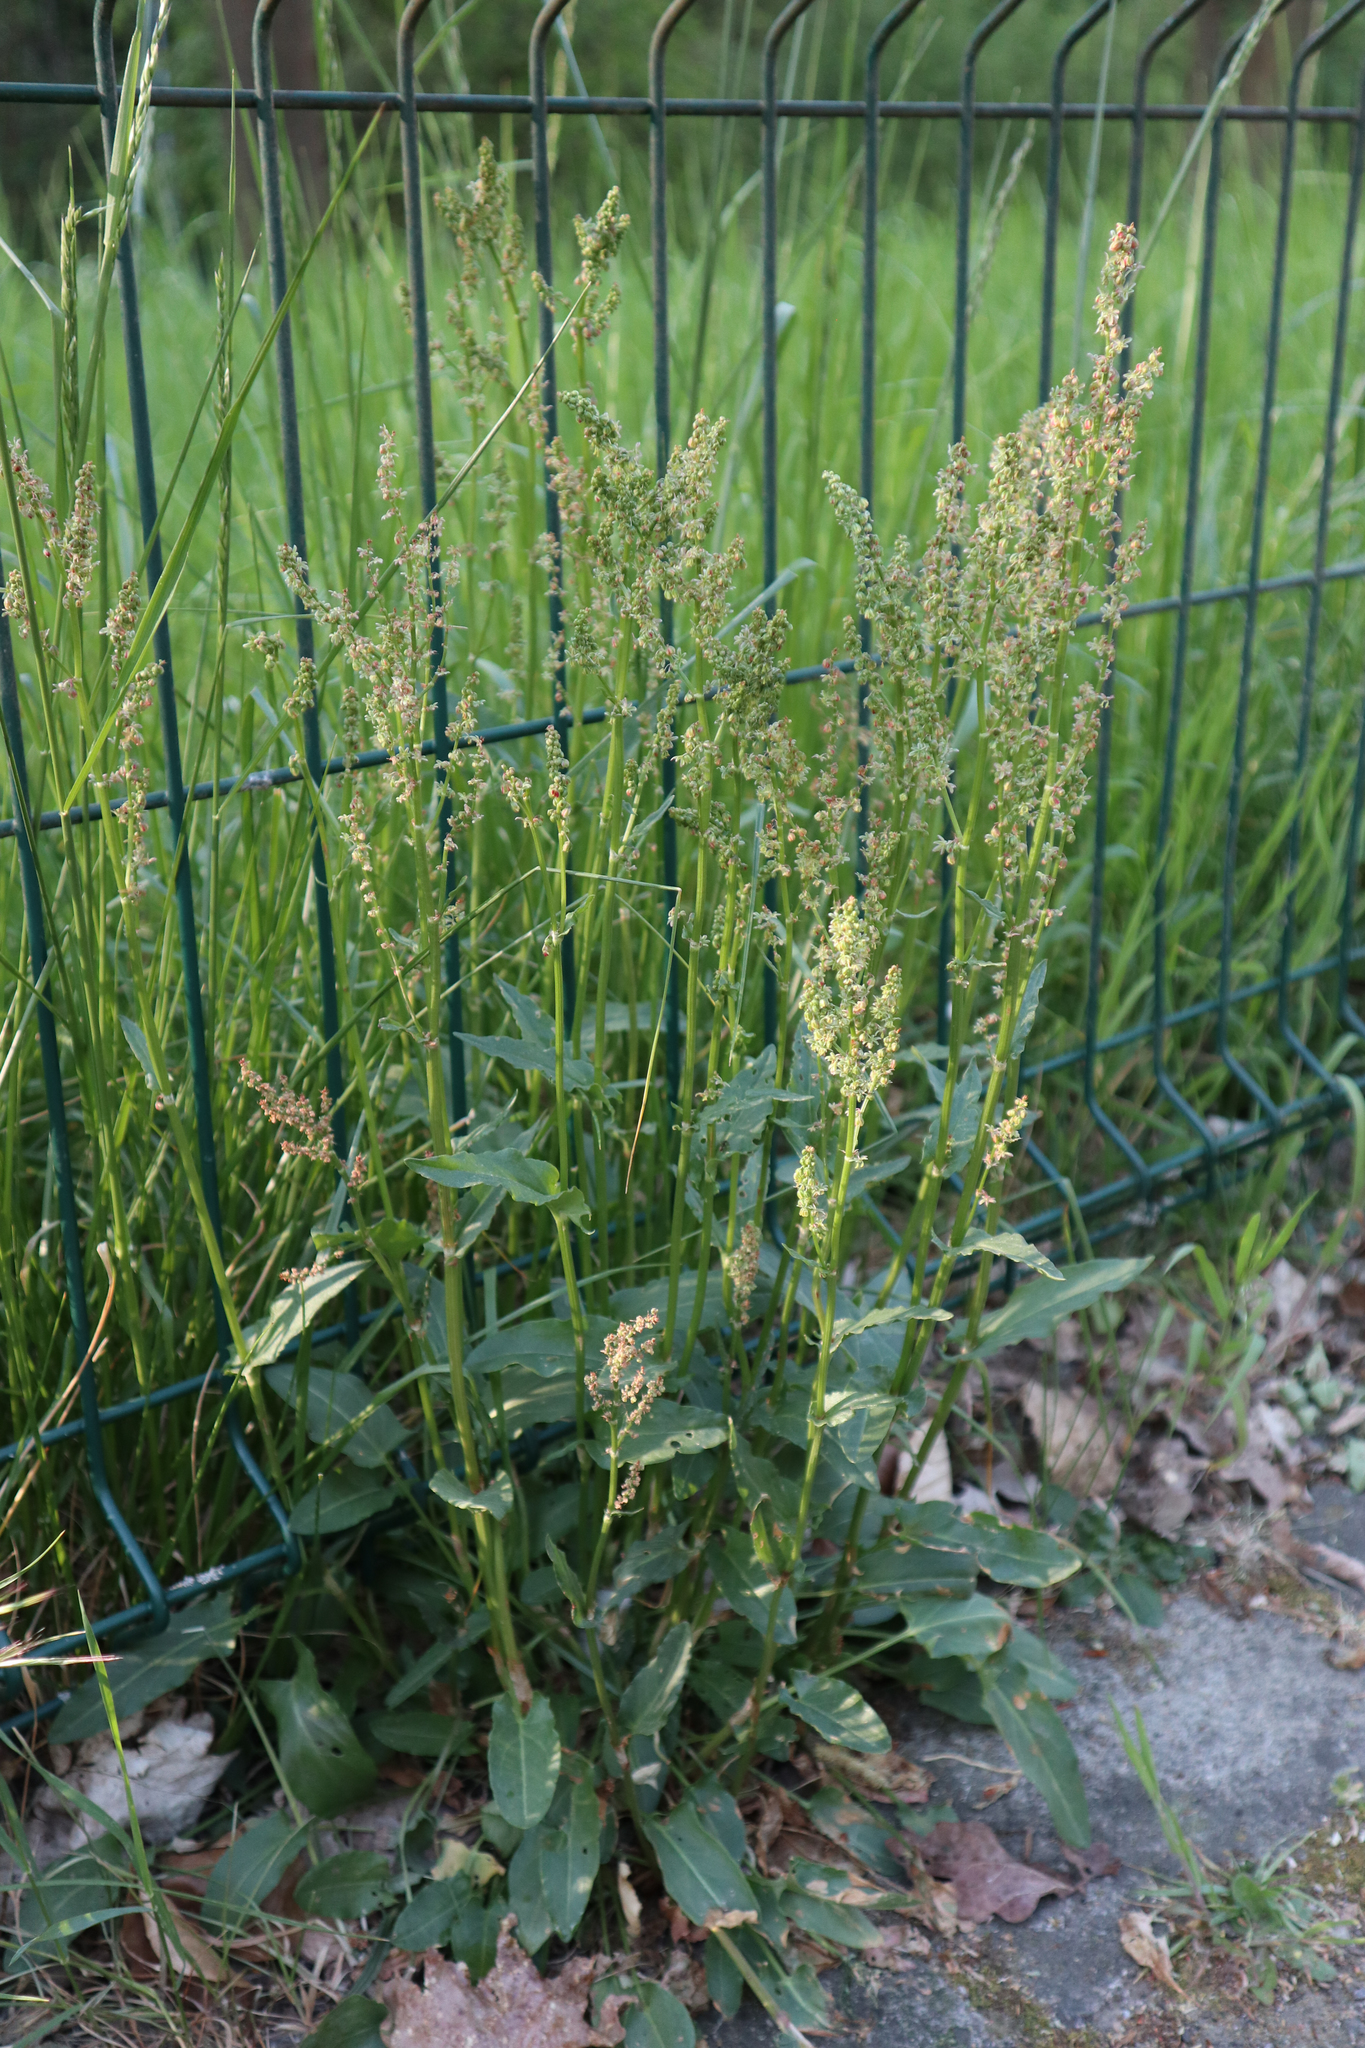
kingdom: Plantae
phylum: Tracheophyta
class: Magnoliopsida
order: Caryophyllales
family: Polygonaceae
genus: Rumex
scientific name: Rumex acetosa
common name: Garden sorrel
